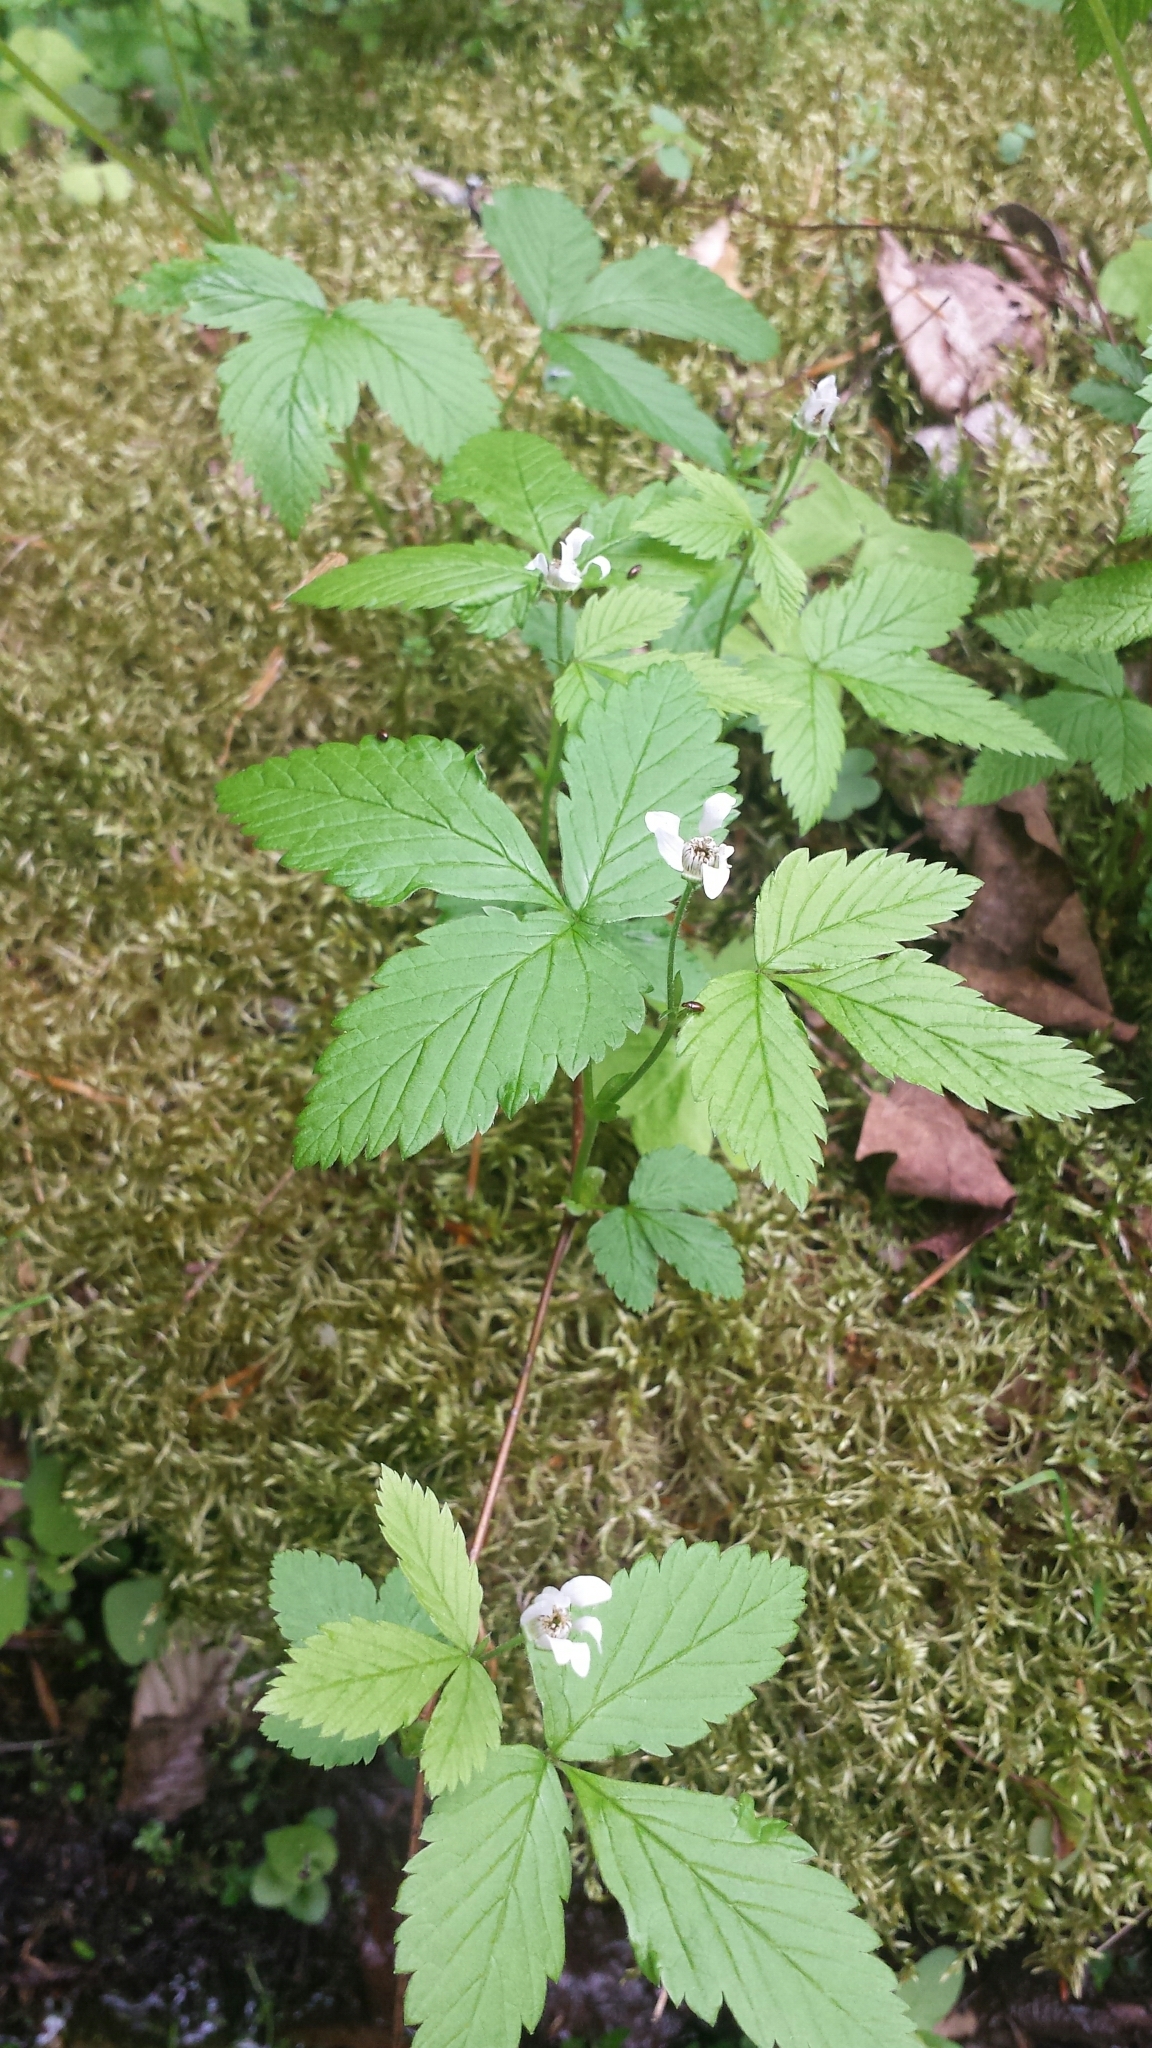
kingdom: Plantae
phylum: Tracheophyta
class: Magnoliopsida
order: Rosales
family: Rosaceae
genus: Rubus
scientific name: Rubus pubescens
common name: Dwarf raspberry
